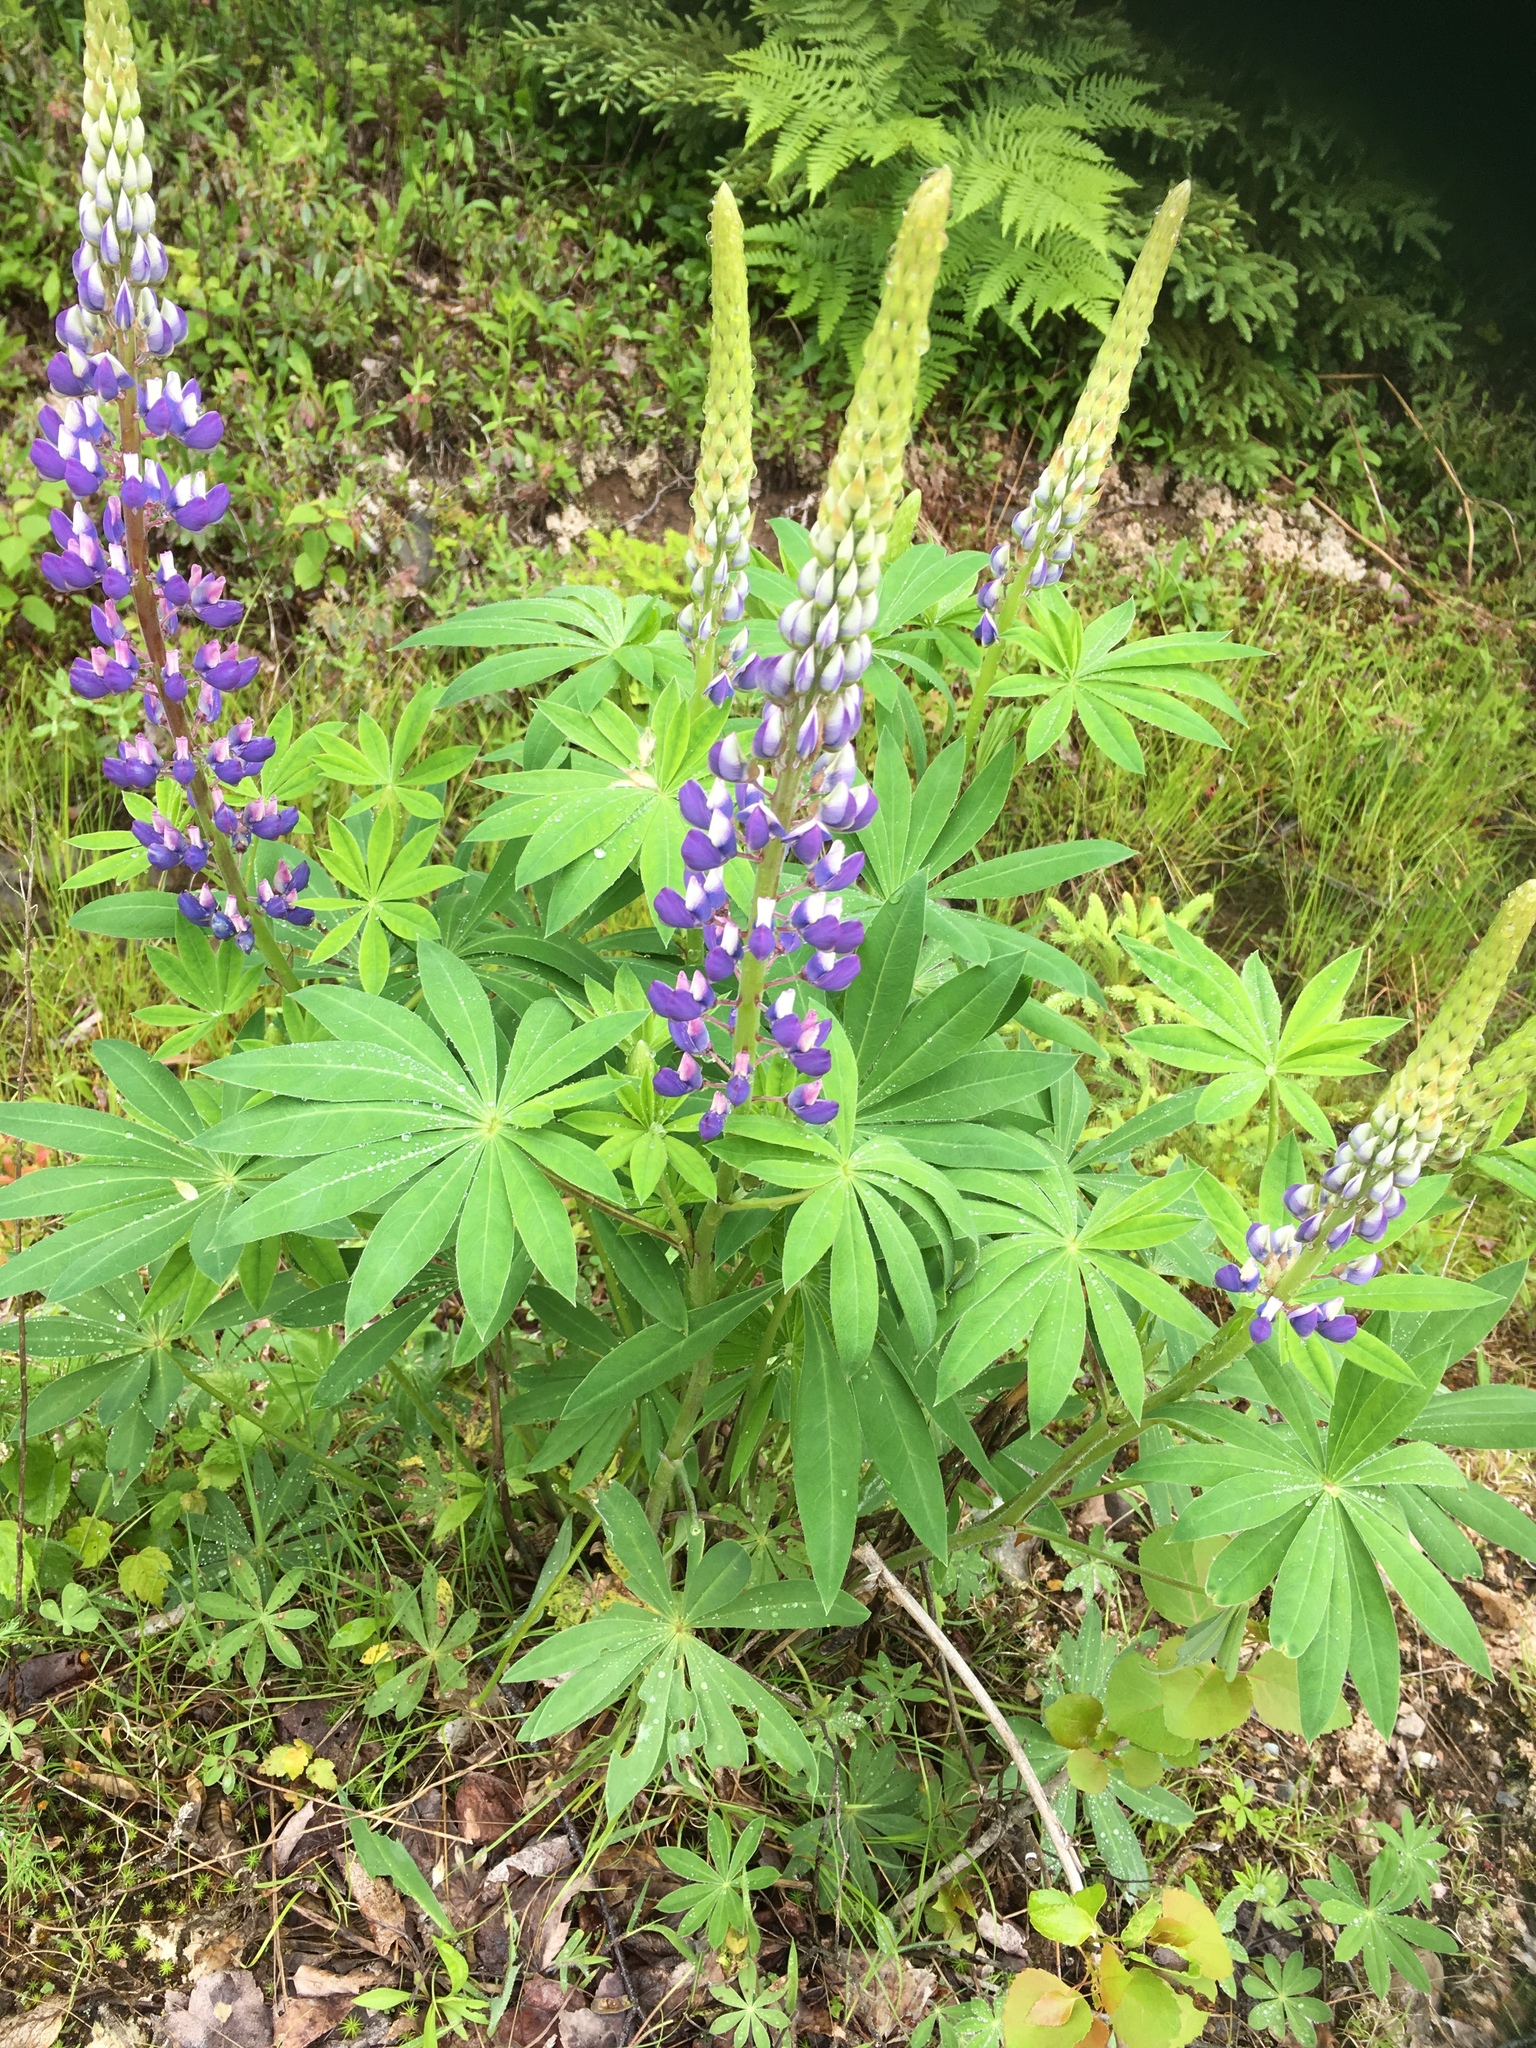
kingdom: Plantae
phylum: Tracheophyta
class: Magnoliopsida
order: Fabales
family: Fabaceae
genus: Lupinus
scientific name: Lupinus polyphyllus
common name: Garden lupin
